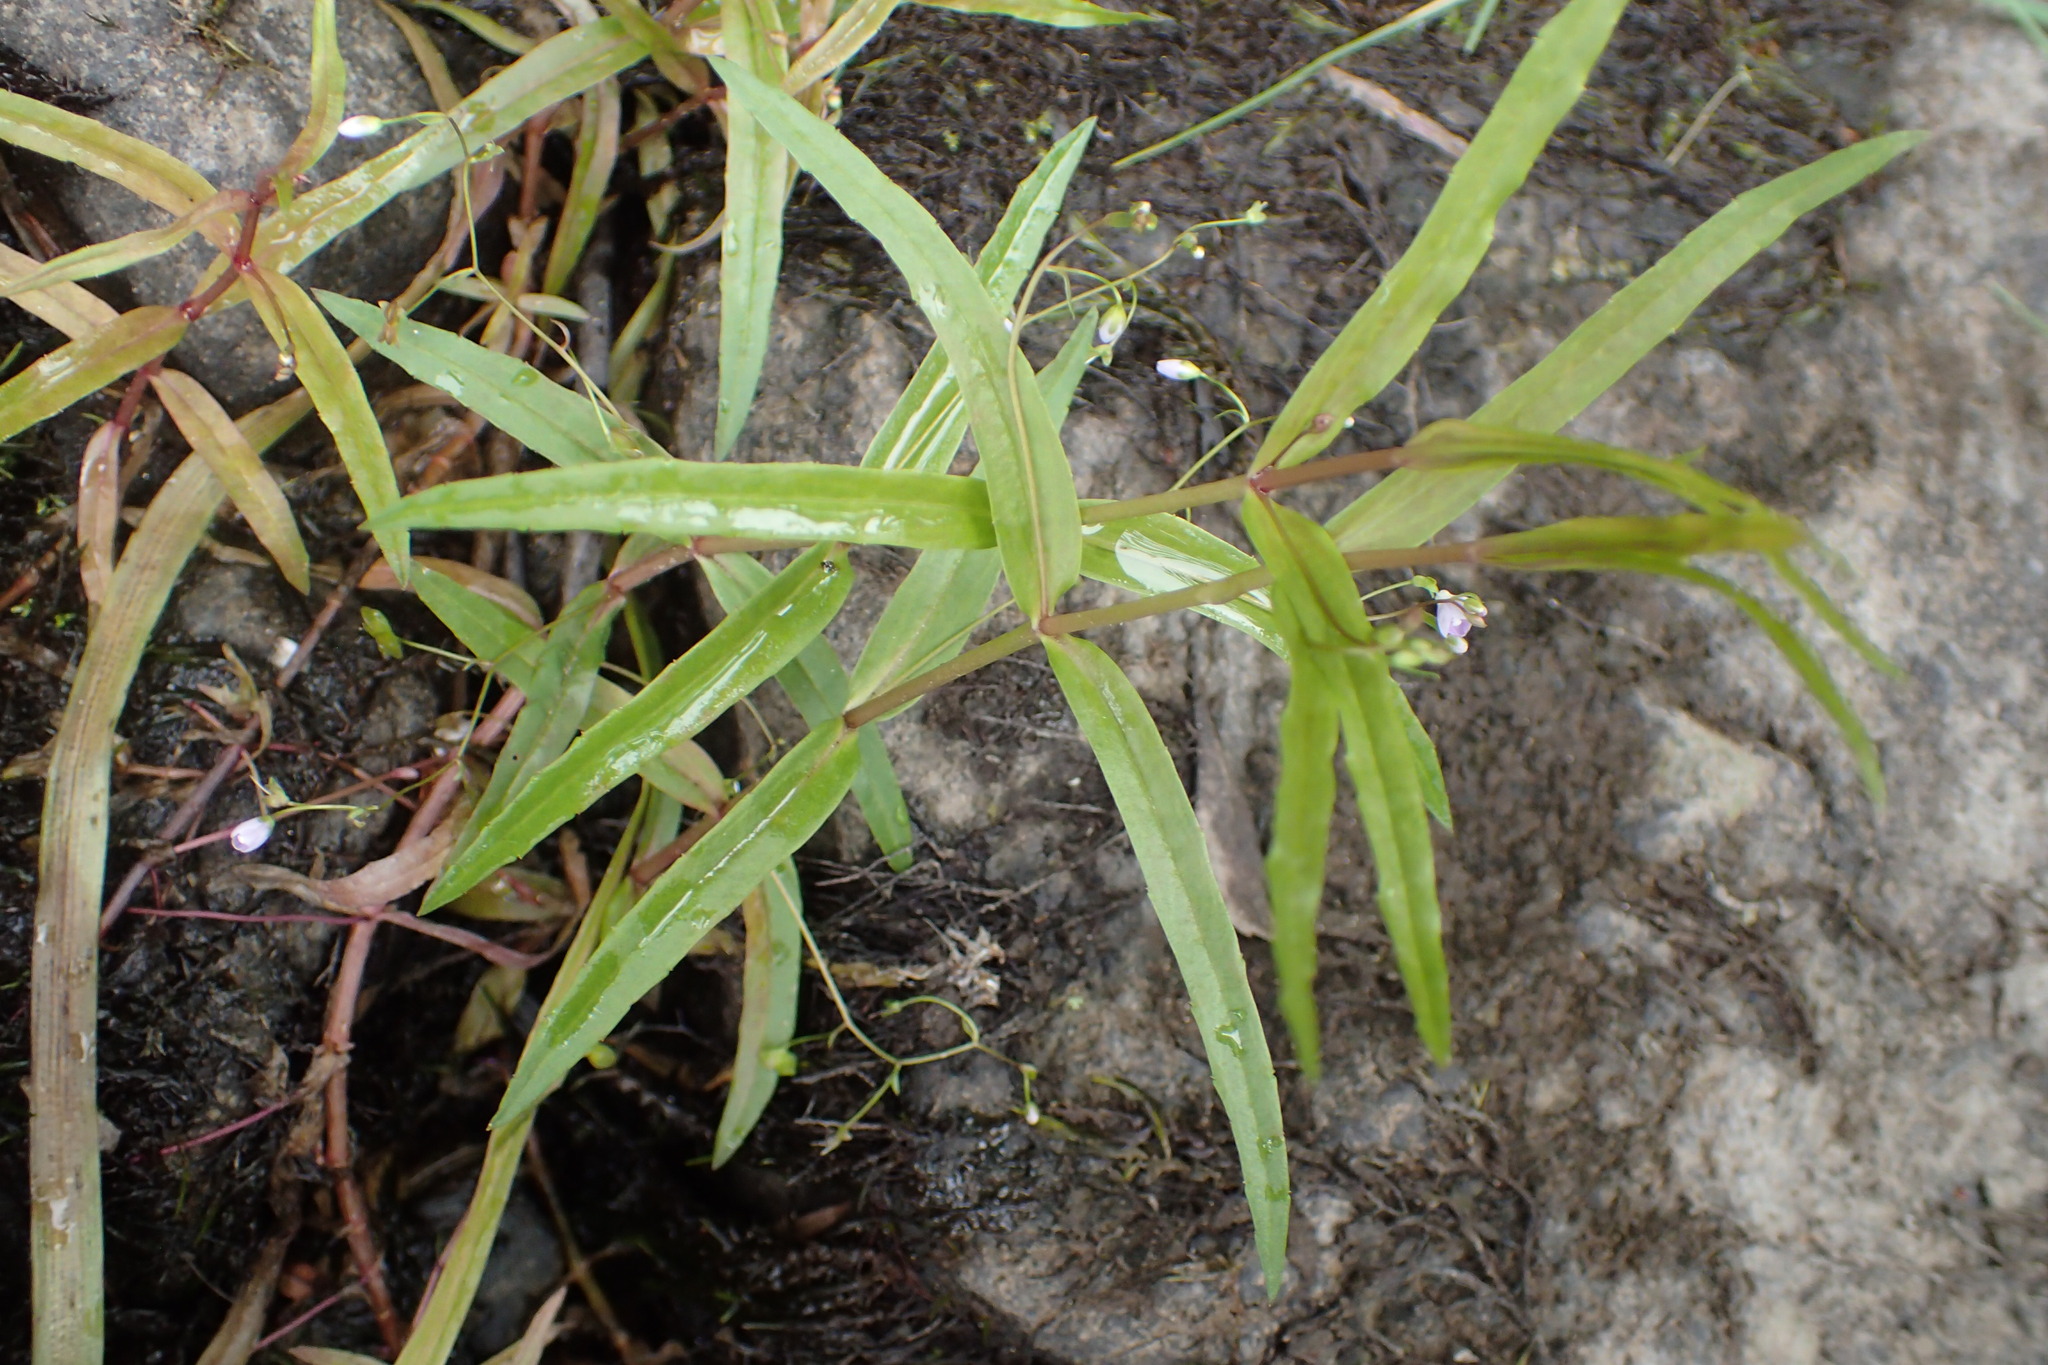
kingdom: Plantae
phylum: Tracheophyta
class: Magnoliopsida
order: Lamiales
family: Plantaginaceae
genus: Veronica
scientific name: Veronica scutellata
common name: Marsh speedwell
